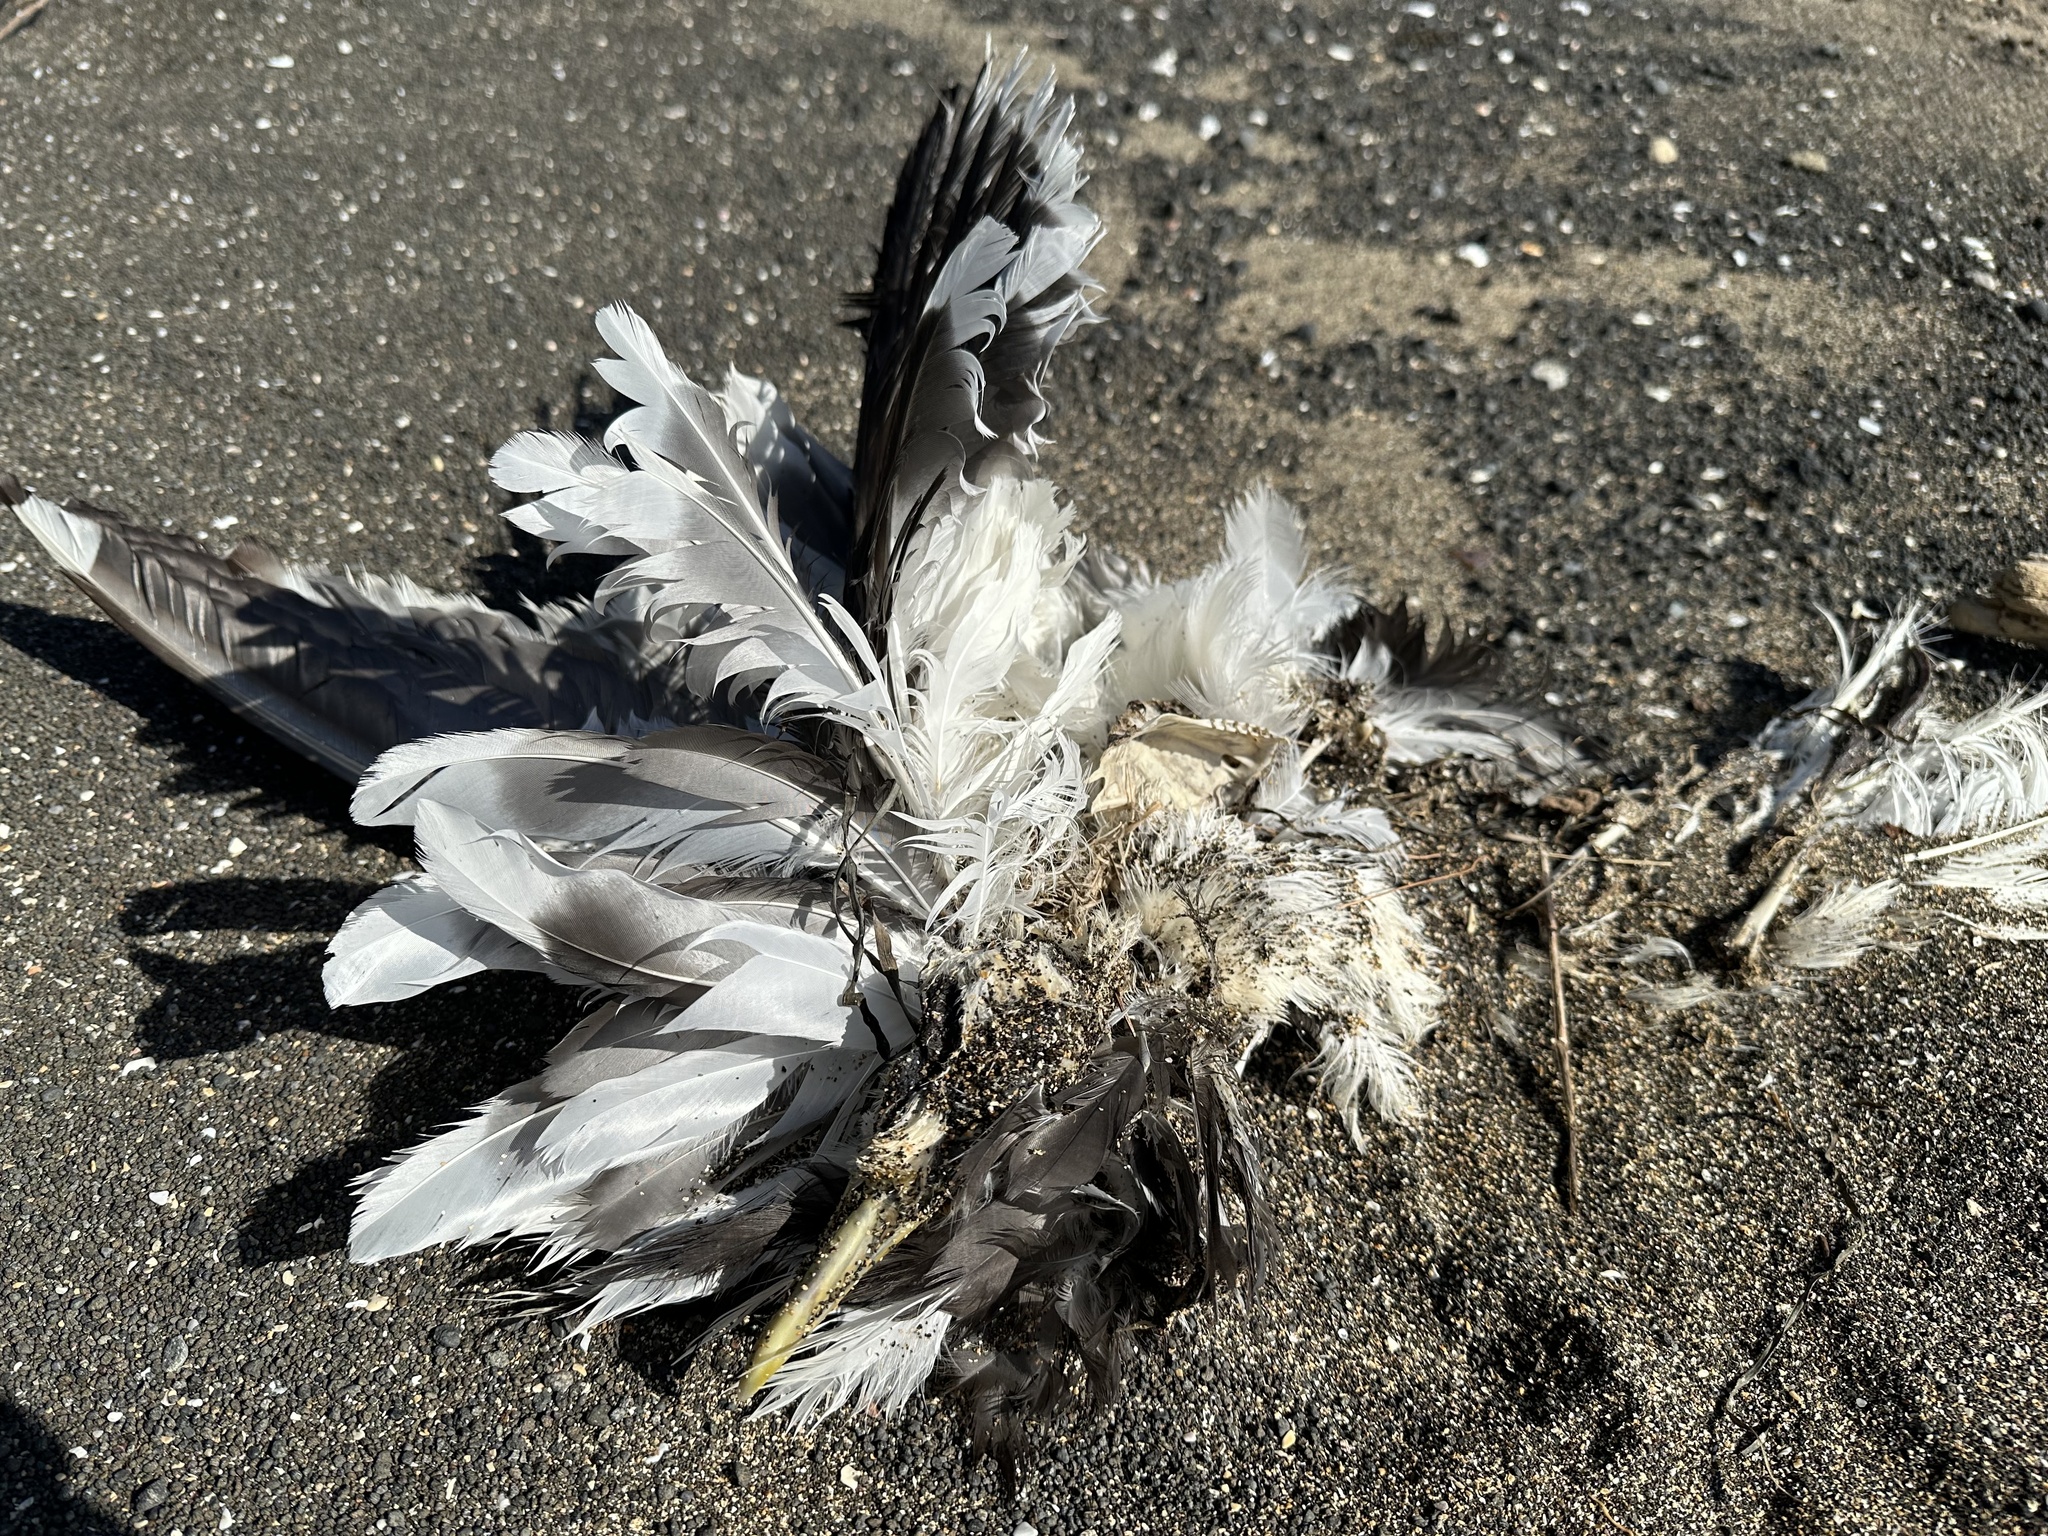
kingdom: Animalia
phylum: Chordata
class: Aves
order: Charadriiformes
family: Laridae
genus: Larus
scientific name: Larus dominicanus
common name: Kelp gull
